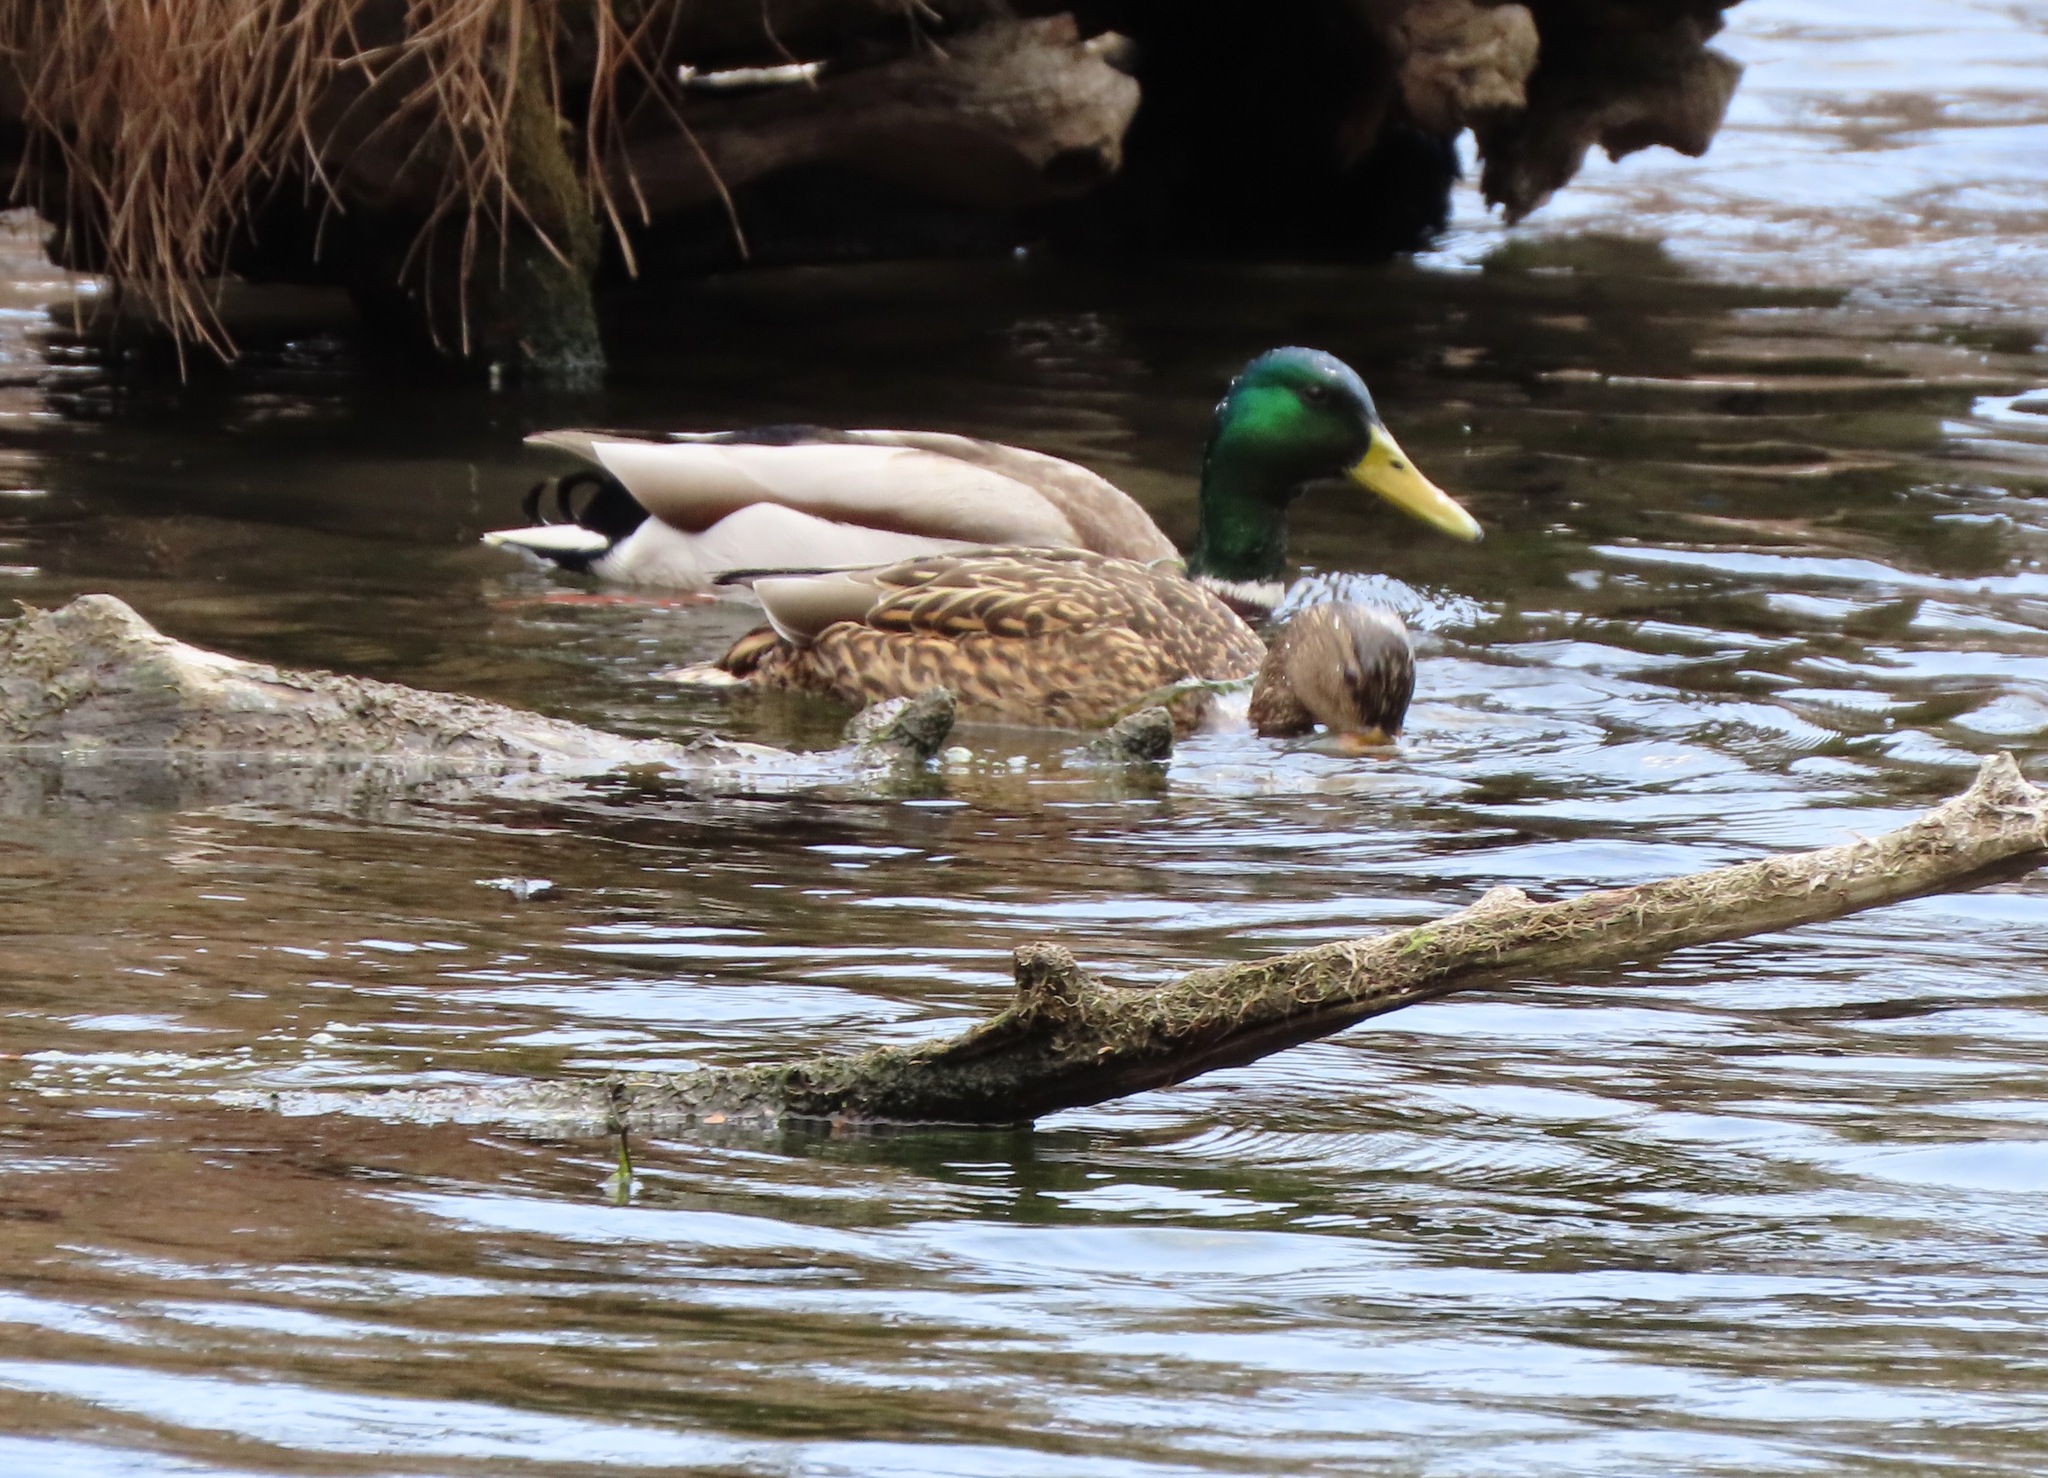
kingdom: Animalia
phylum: Chordata
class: Aves
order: Anseriformes
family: Anatidae
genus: Anas
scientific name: Anas platyrhynchos
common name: Mallard
